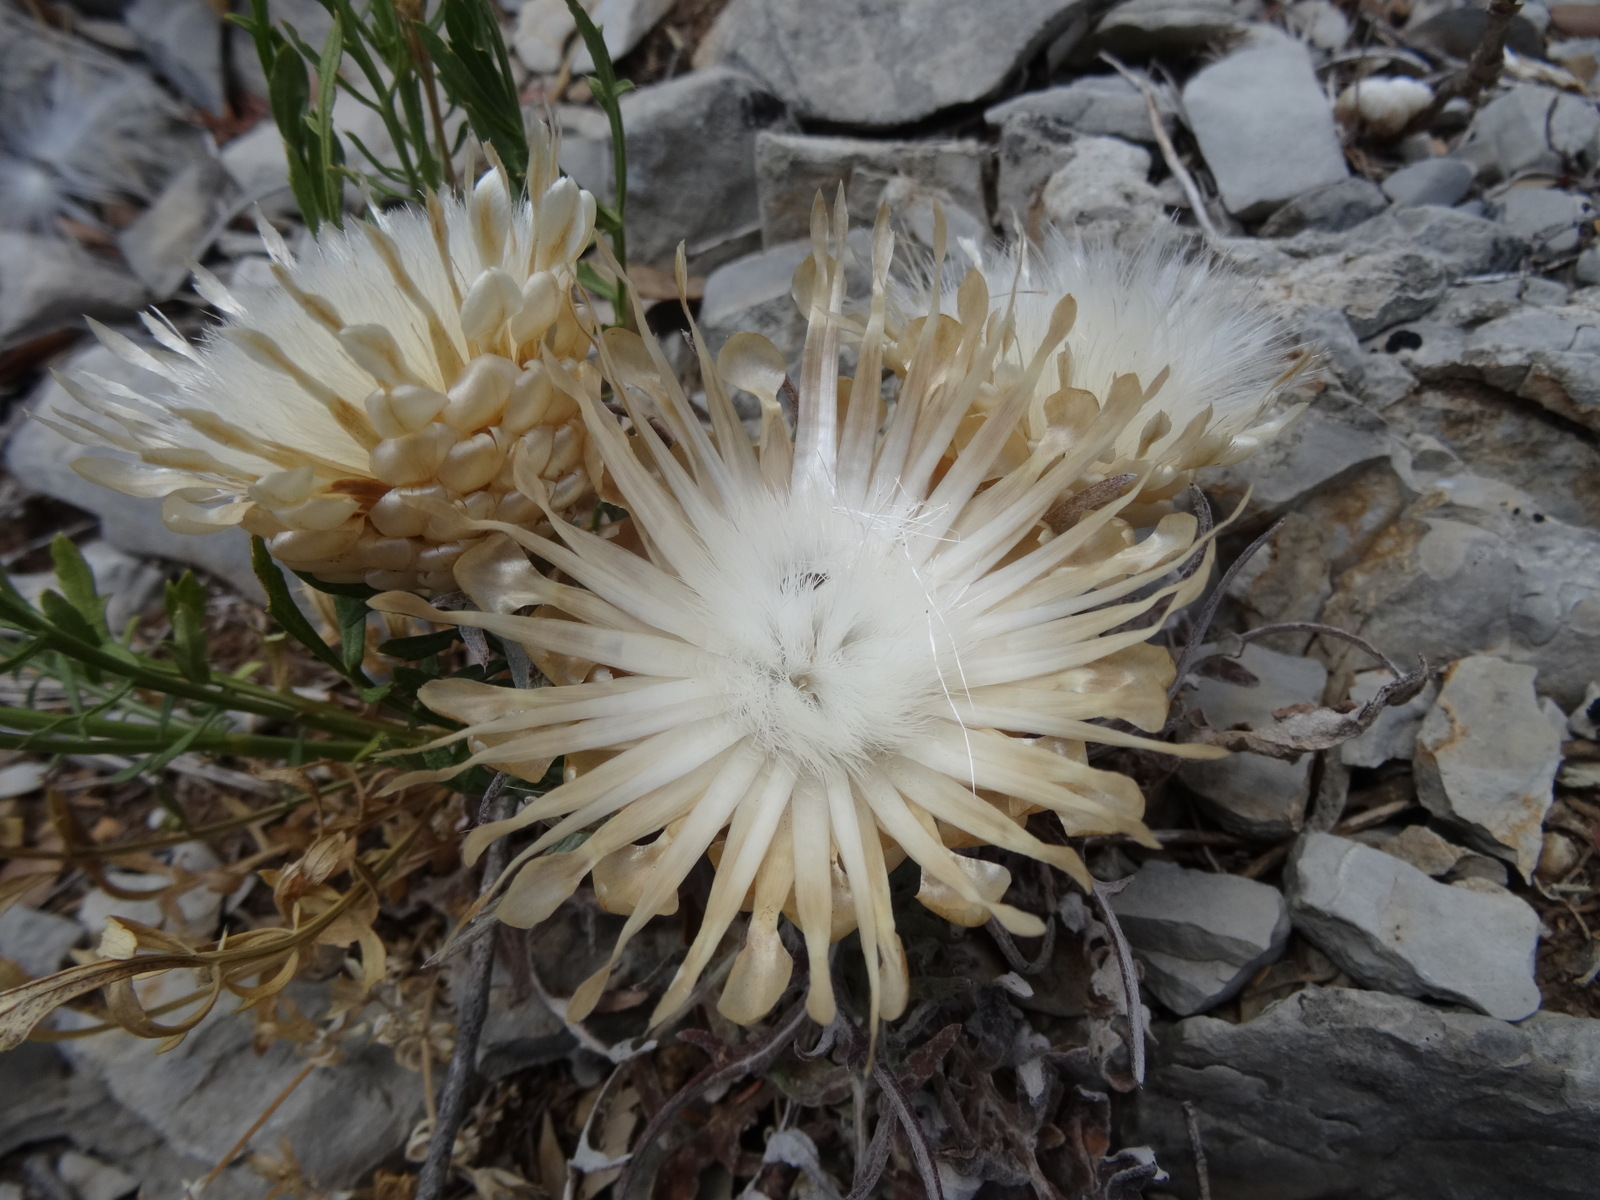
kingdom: Plantae
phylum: Tracheophyta
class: Magnoliopsida
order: Asterales
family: Asteraceae
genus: Leuzea
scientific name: Leuzea conifera
